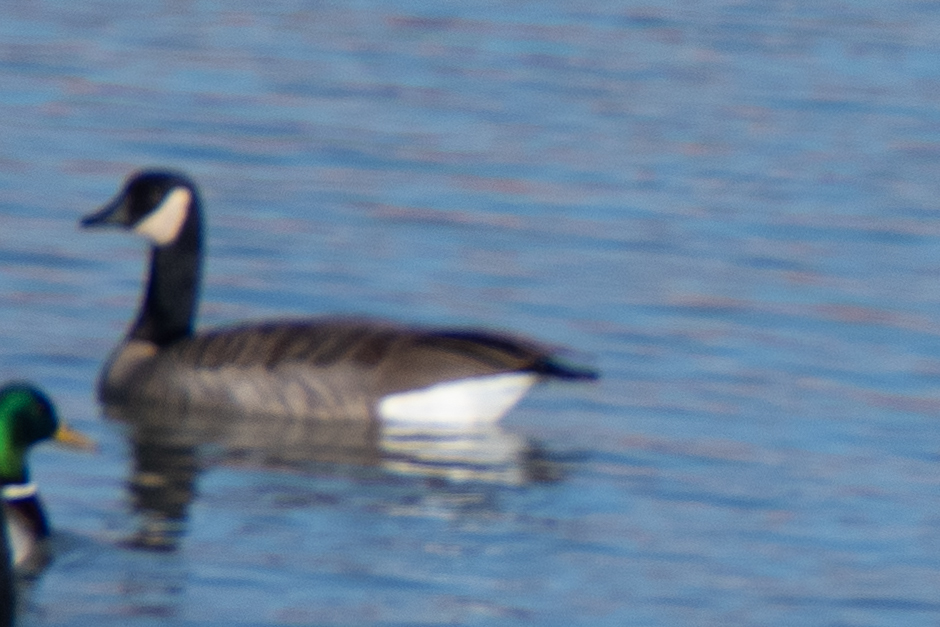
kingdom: Animalia
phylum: Chordata
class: Aves
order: Anseriformes
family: Anatidae
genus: Branta
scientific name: Branta canadensis
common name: Canada goose
